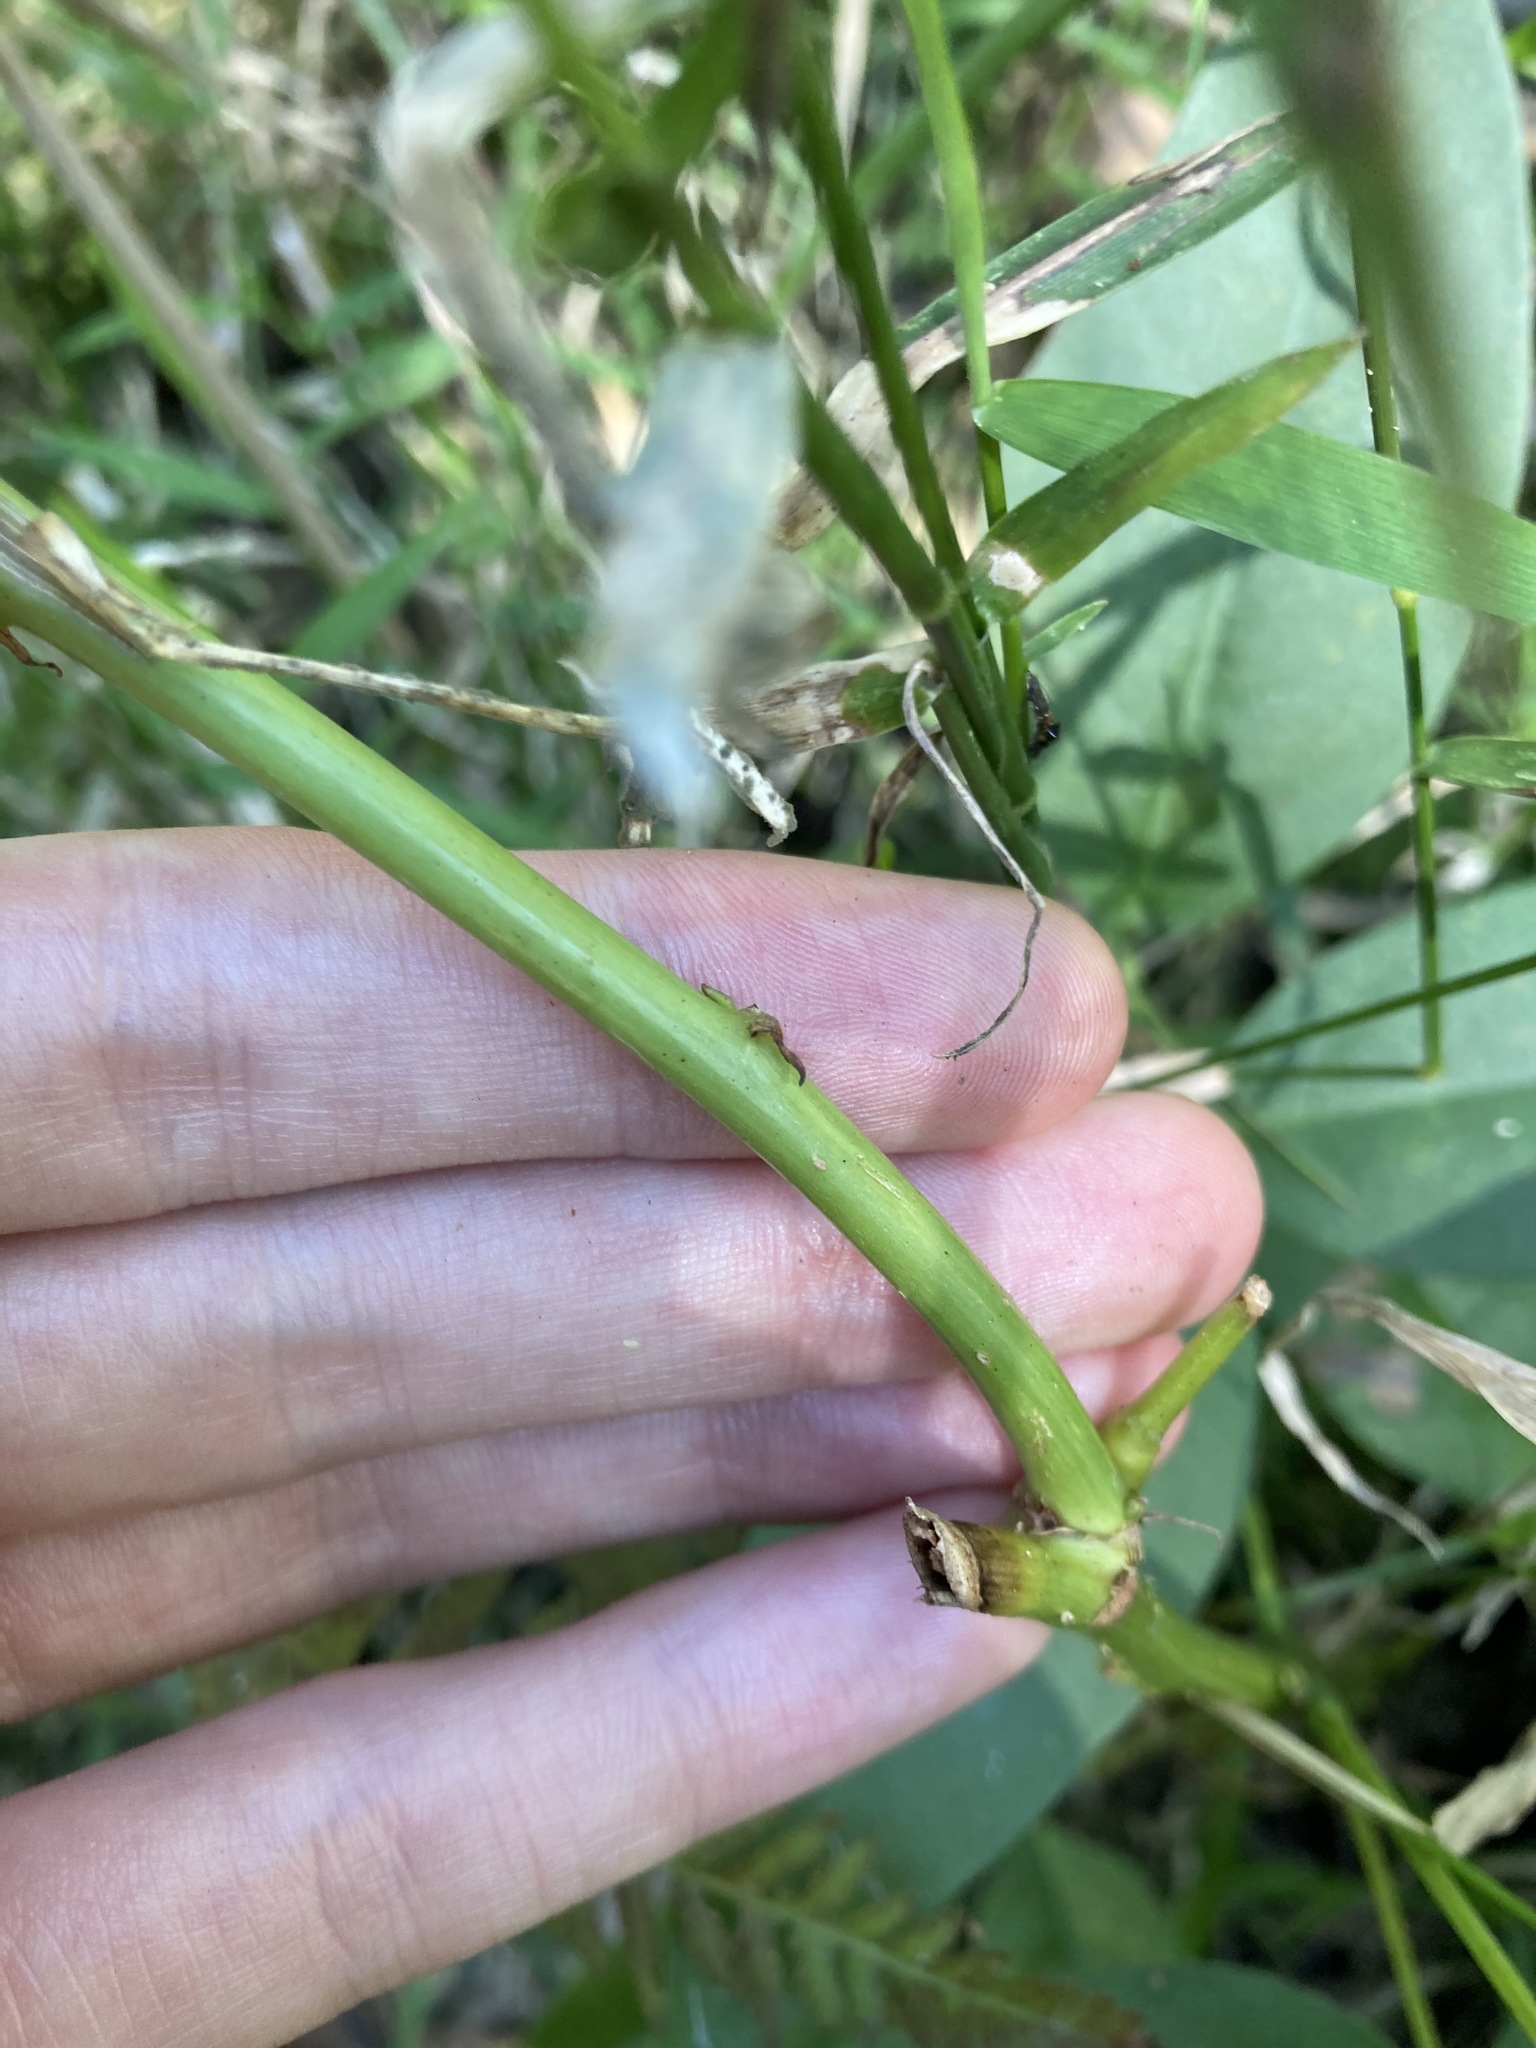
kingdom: Plantae
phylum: Tracheophyta
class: Magnoliopsida
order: Fabales
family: Fabaceae
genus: Erythrina
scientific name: Erythrina crista-galli
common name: Cockspur coral tree
